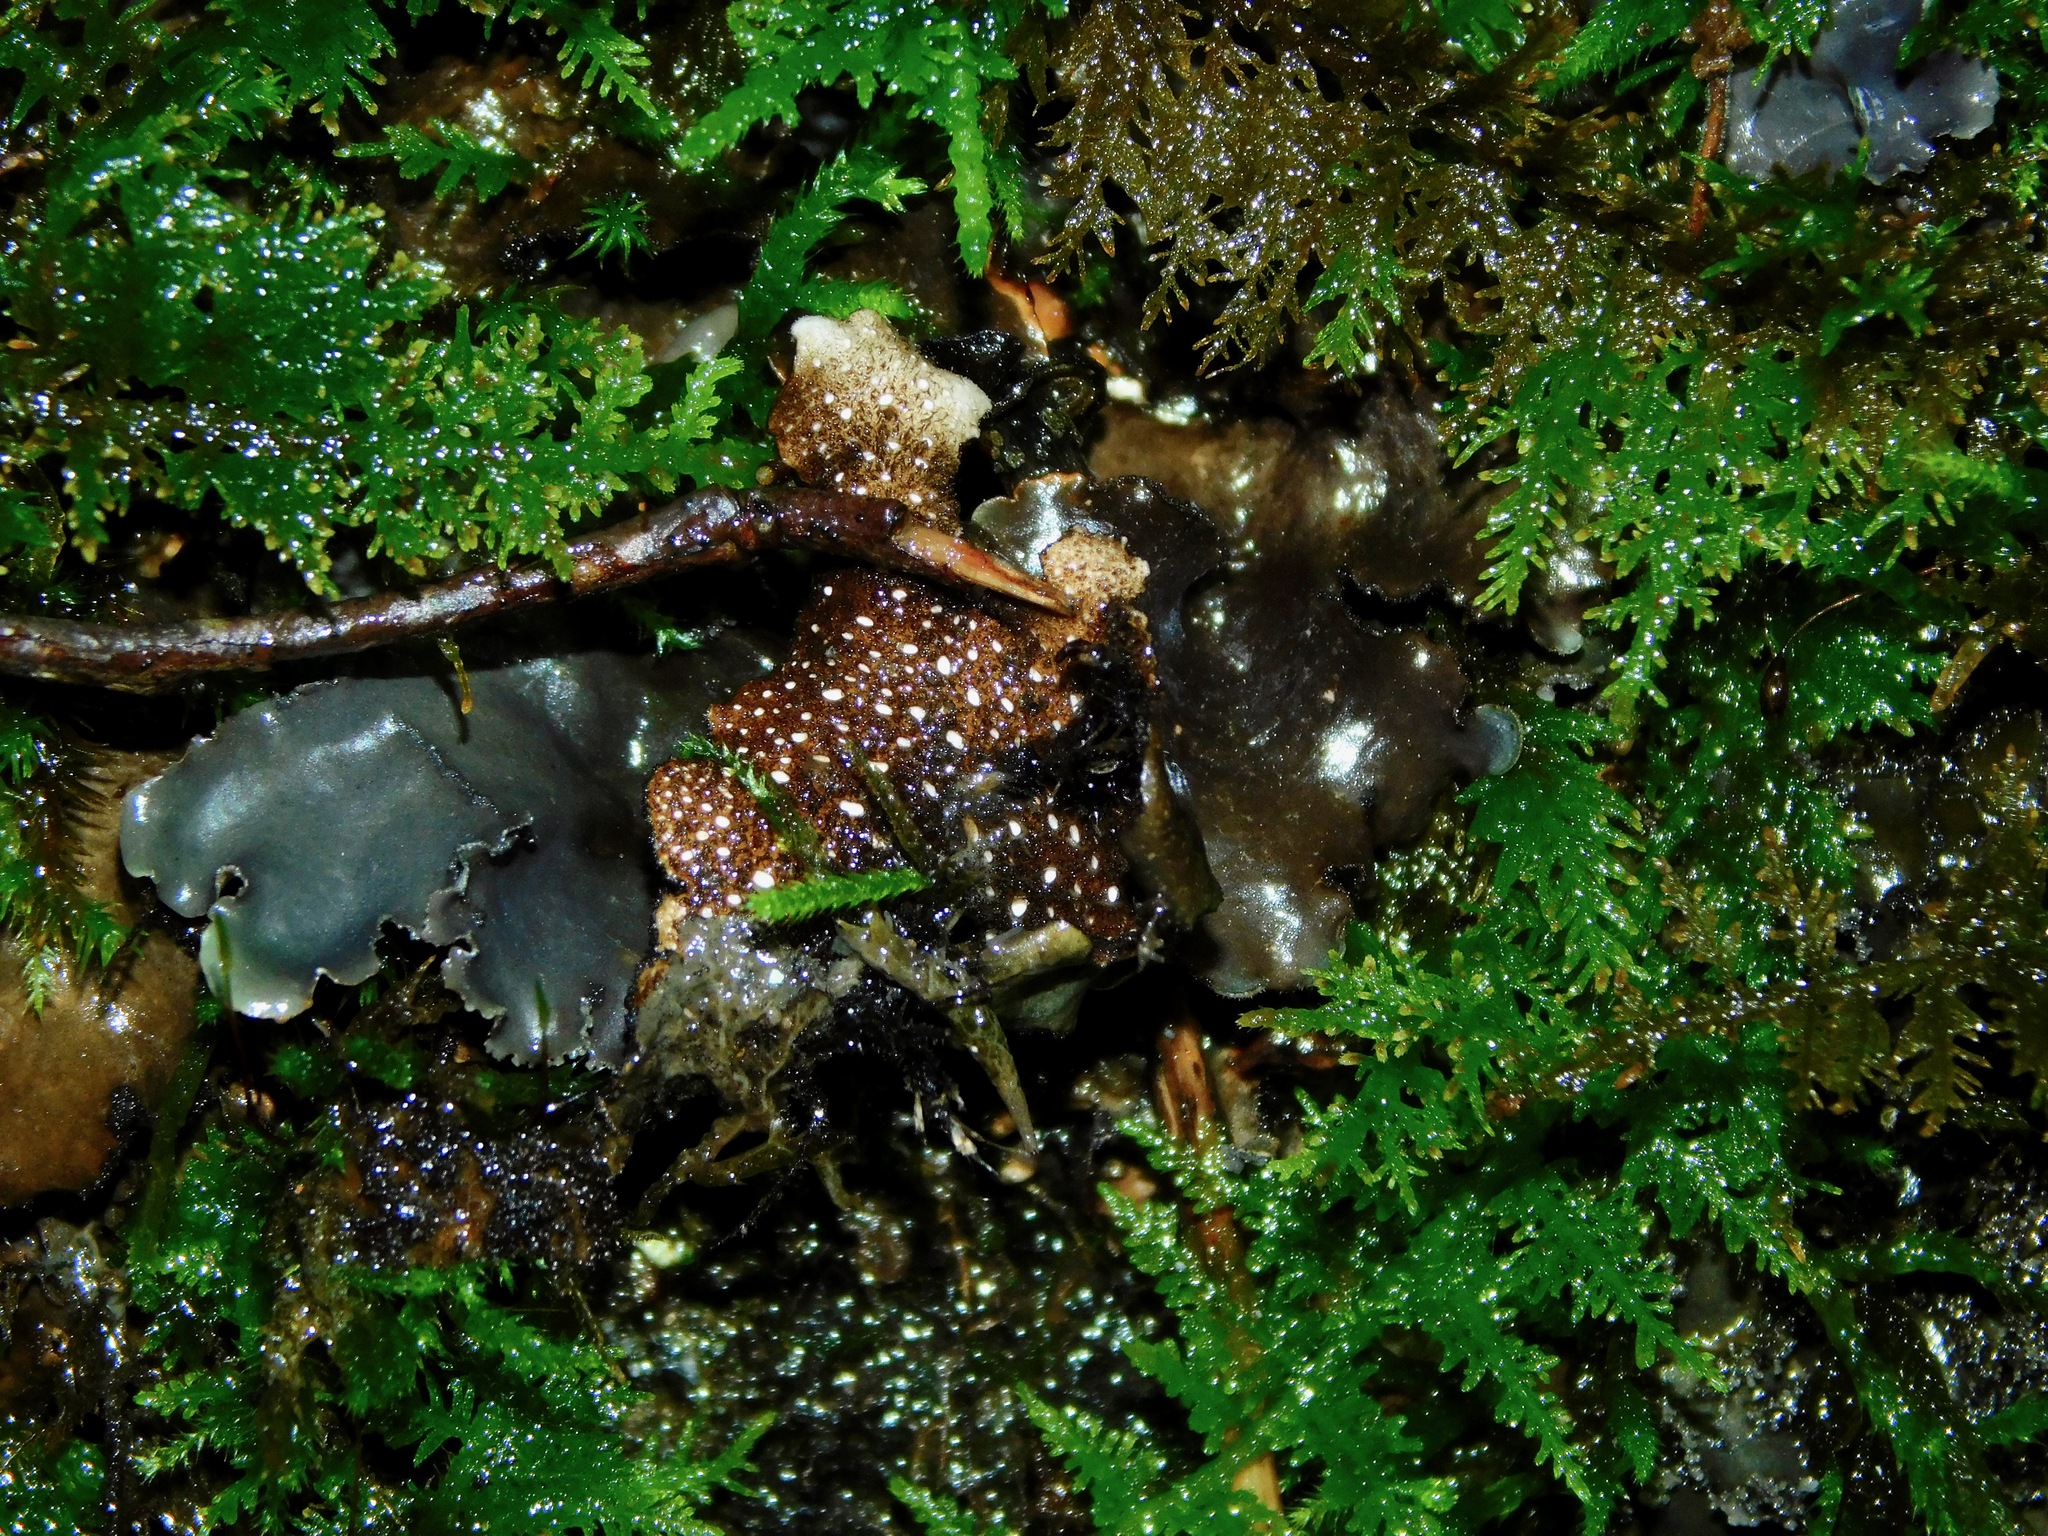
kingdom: Fungi
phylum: Ascomycota
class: Lecanoromycetes
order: Peltigerales
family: Lobariaceae
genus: Sticta
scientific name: Sticta beauvoisii
